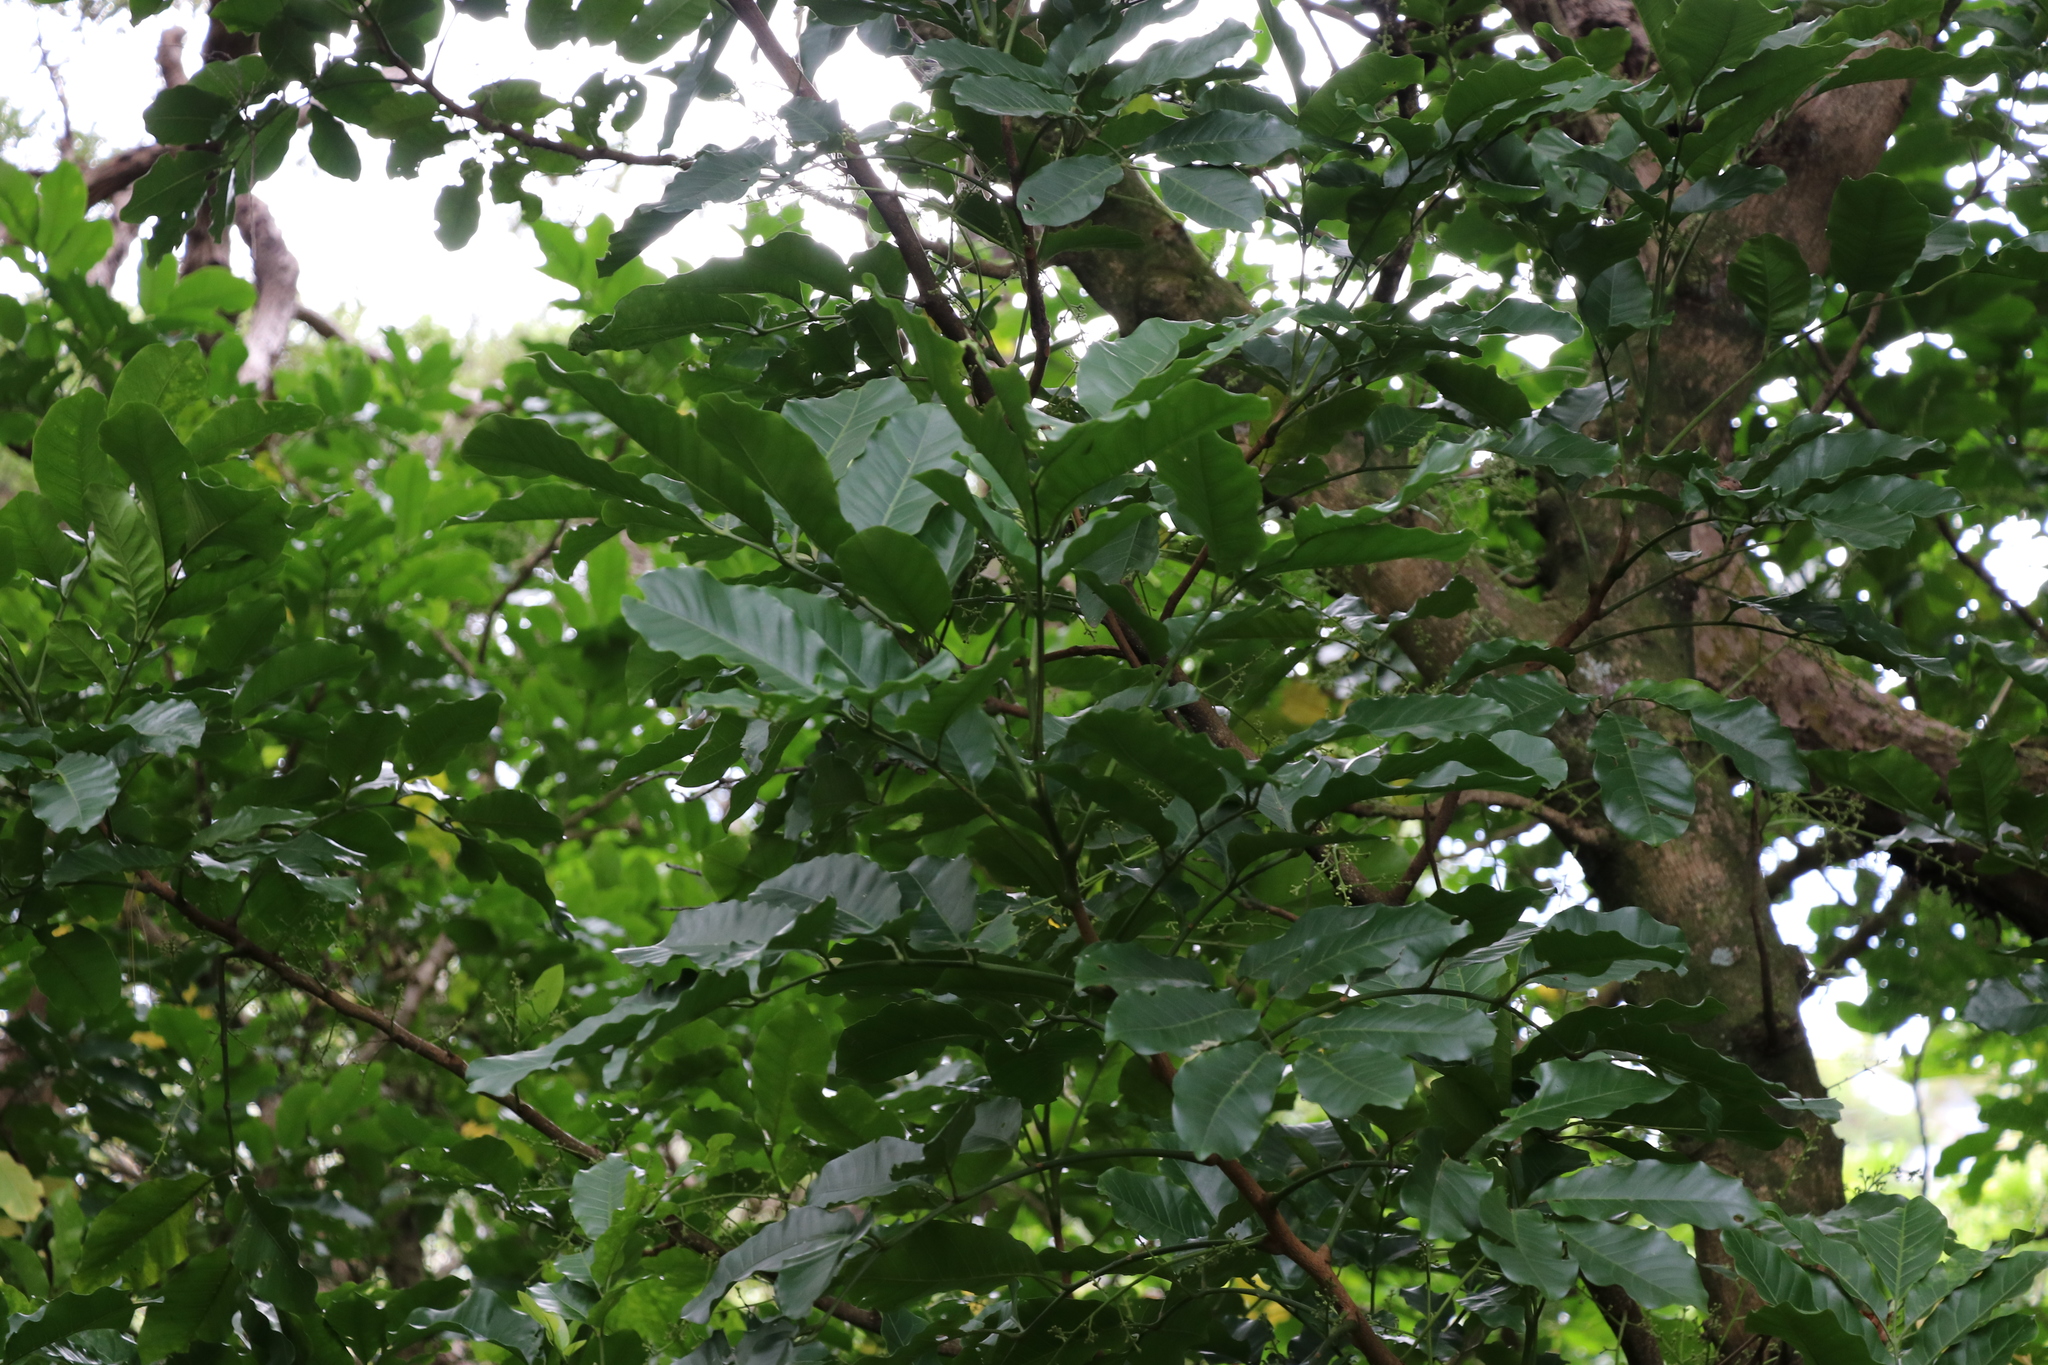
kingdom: Plantae
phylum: Tracheophyta
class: Magnoliopsida
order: Sapindales
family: Meliaceae
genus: Didymocheton
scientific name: Didymocheton spectabilis
